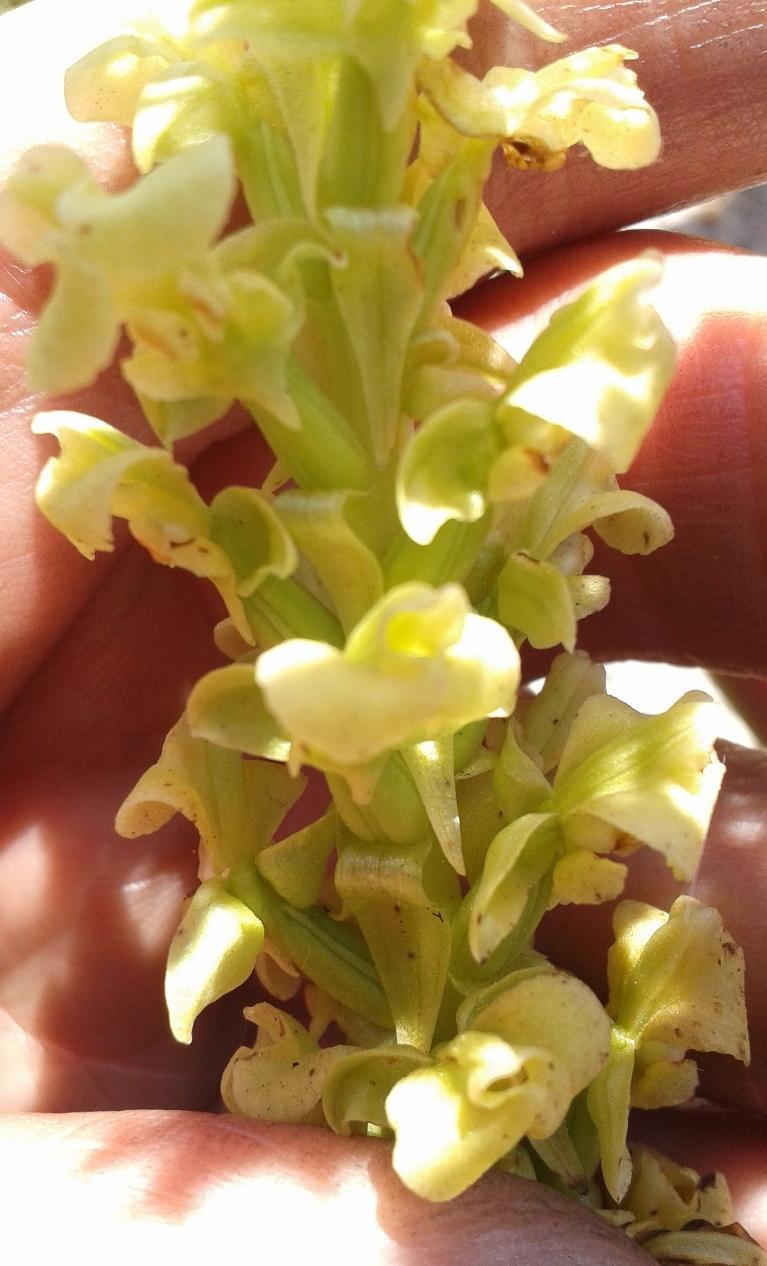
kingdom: Plantae
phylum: Tracheophyta
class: Liliopsida
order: Asparagales
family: Orchidaceae
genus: Pterygodium
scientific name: Pterygodium volucris
